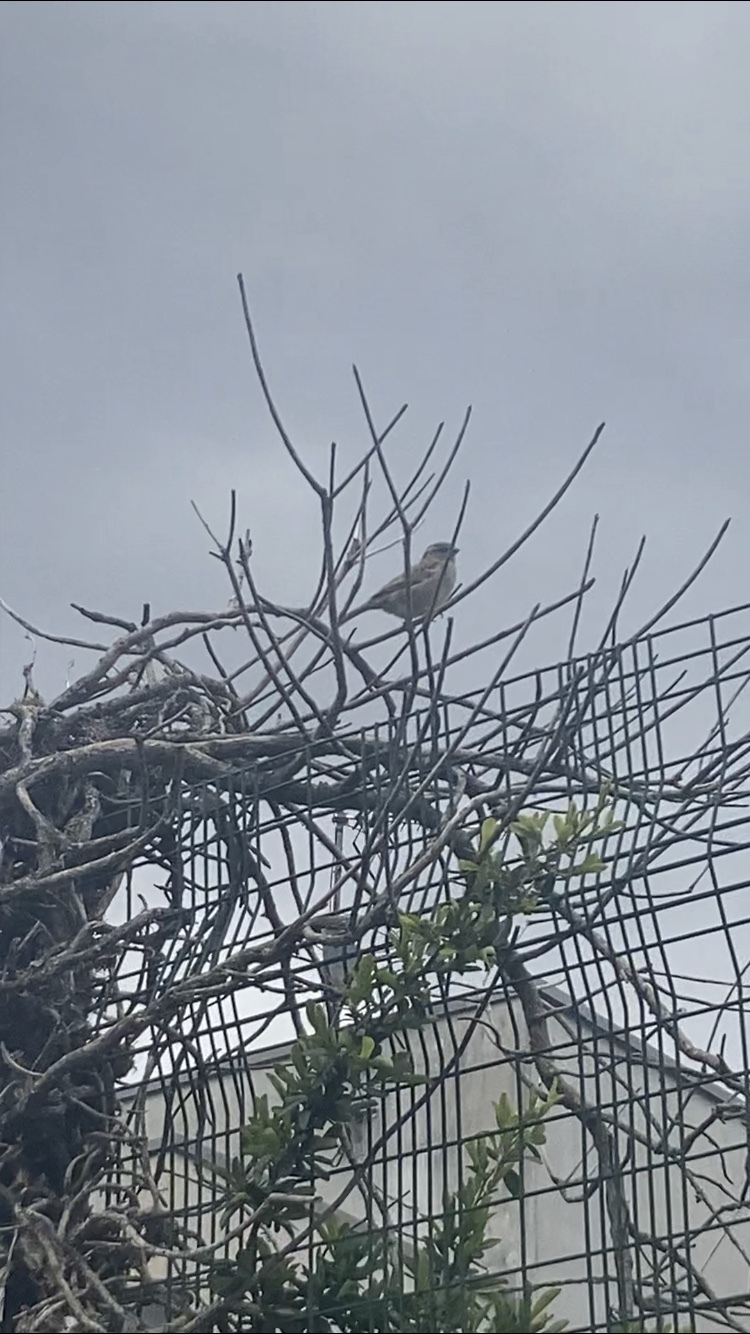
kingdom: Animalia
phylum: Chordata
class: Aves
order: Passeriformes
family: Passeridae
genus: Passer
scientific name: Passer domesticus
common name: House sparrow
